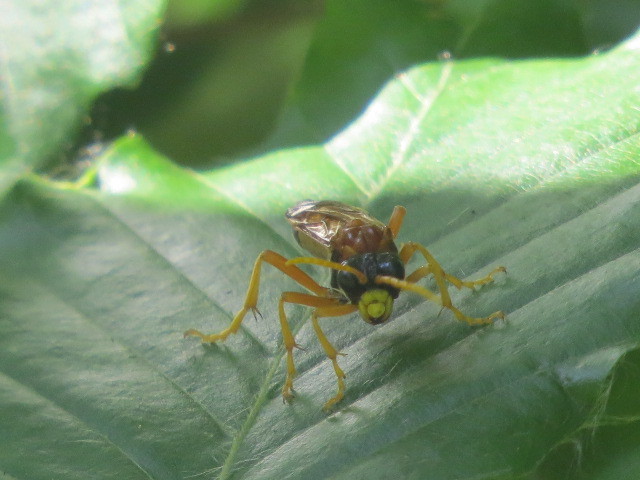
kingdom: Animalia
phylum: Arthropoda
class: Insecta
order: Hymenoptera
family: Tenthredinidae
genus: Tenthredo
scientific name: Tenthredo campestris
